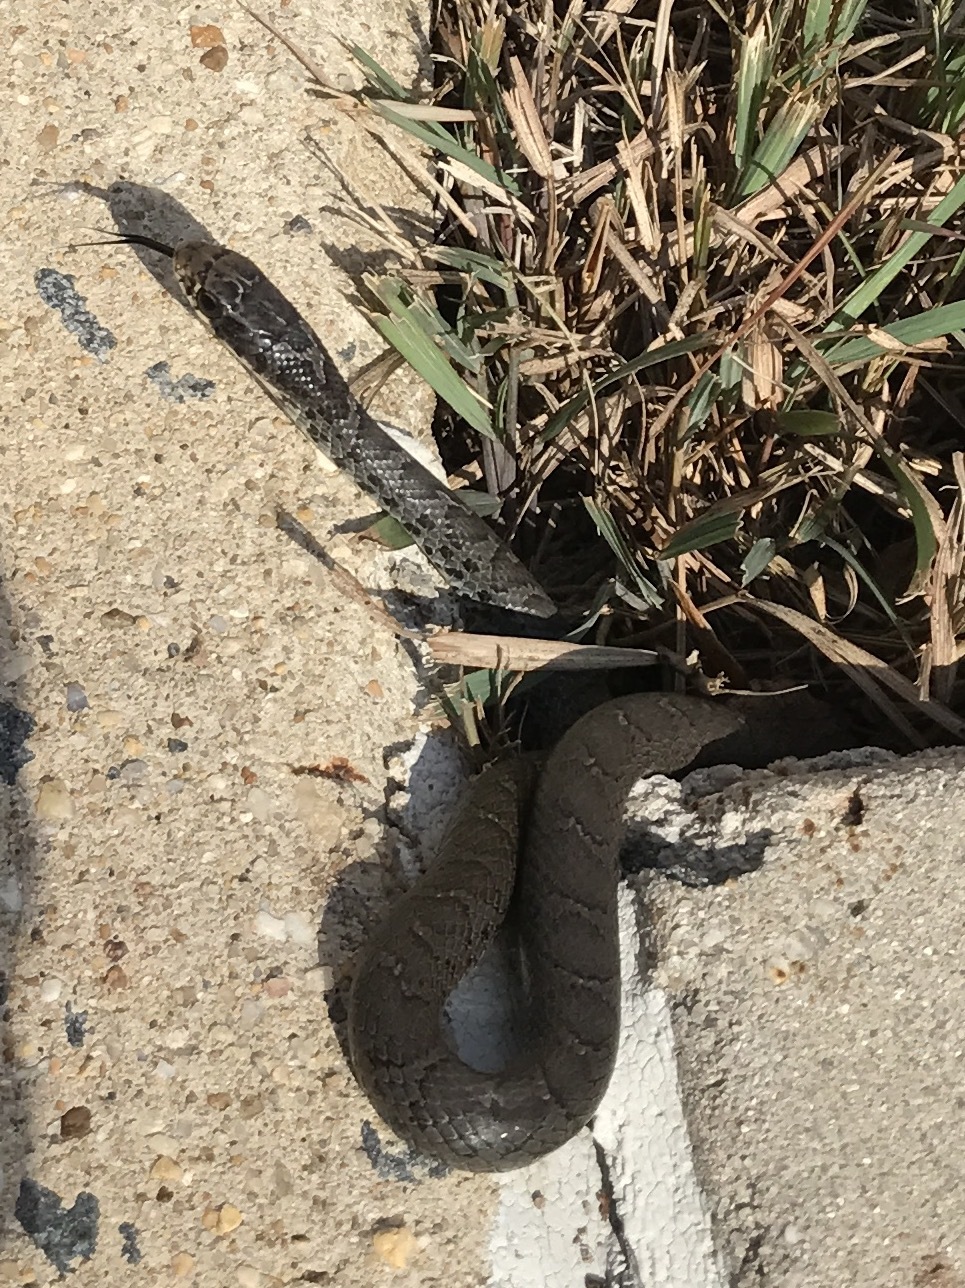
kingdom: Animalia
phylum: Chordata
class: Squamata
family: Colubridae
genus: Coluber
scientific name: Coluber constrictor
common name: Eastern racer
